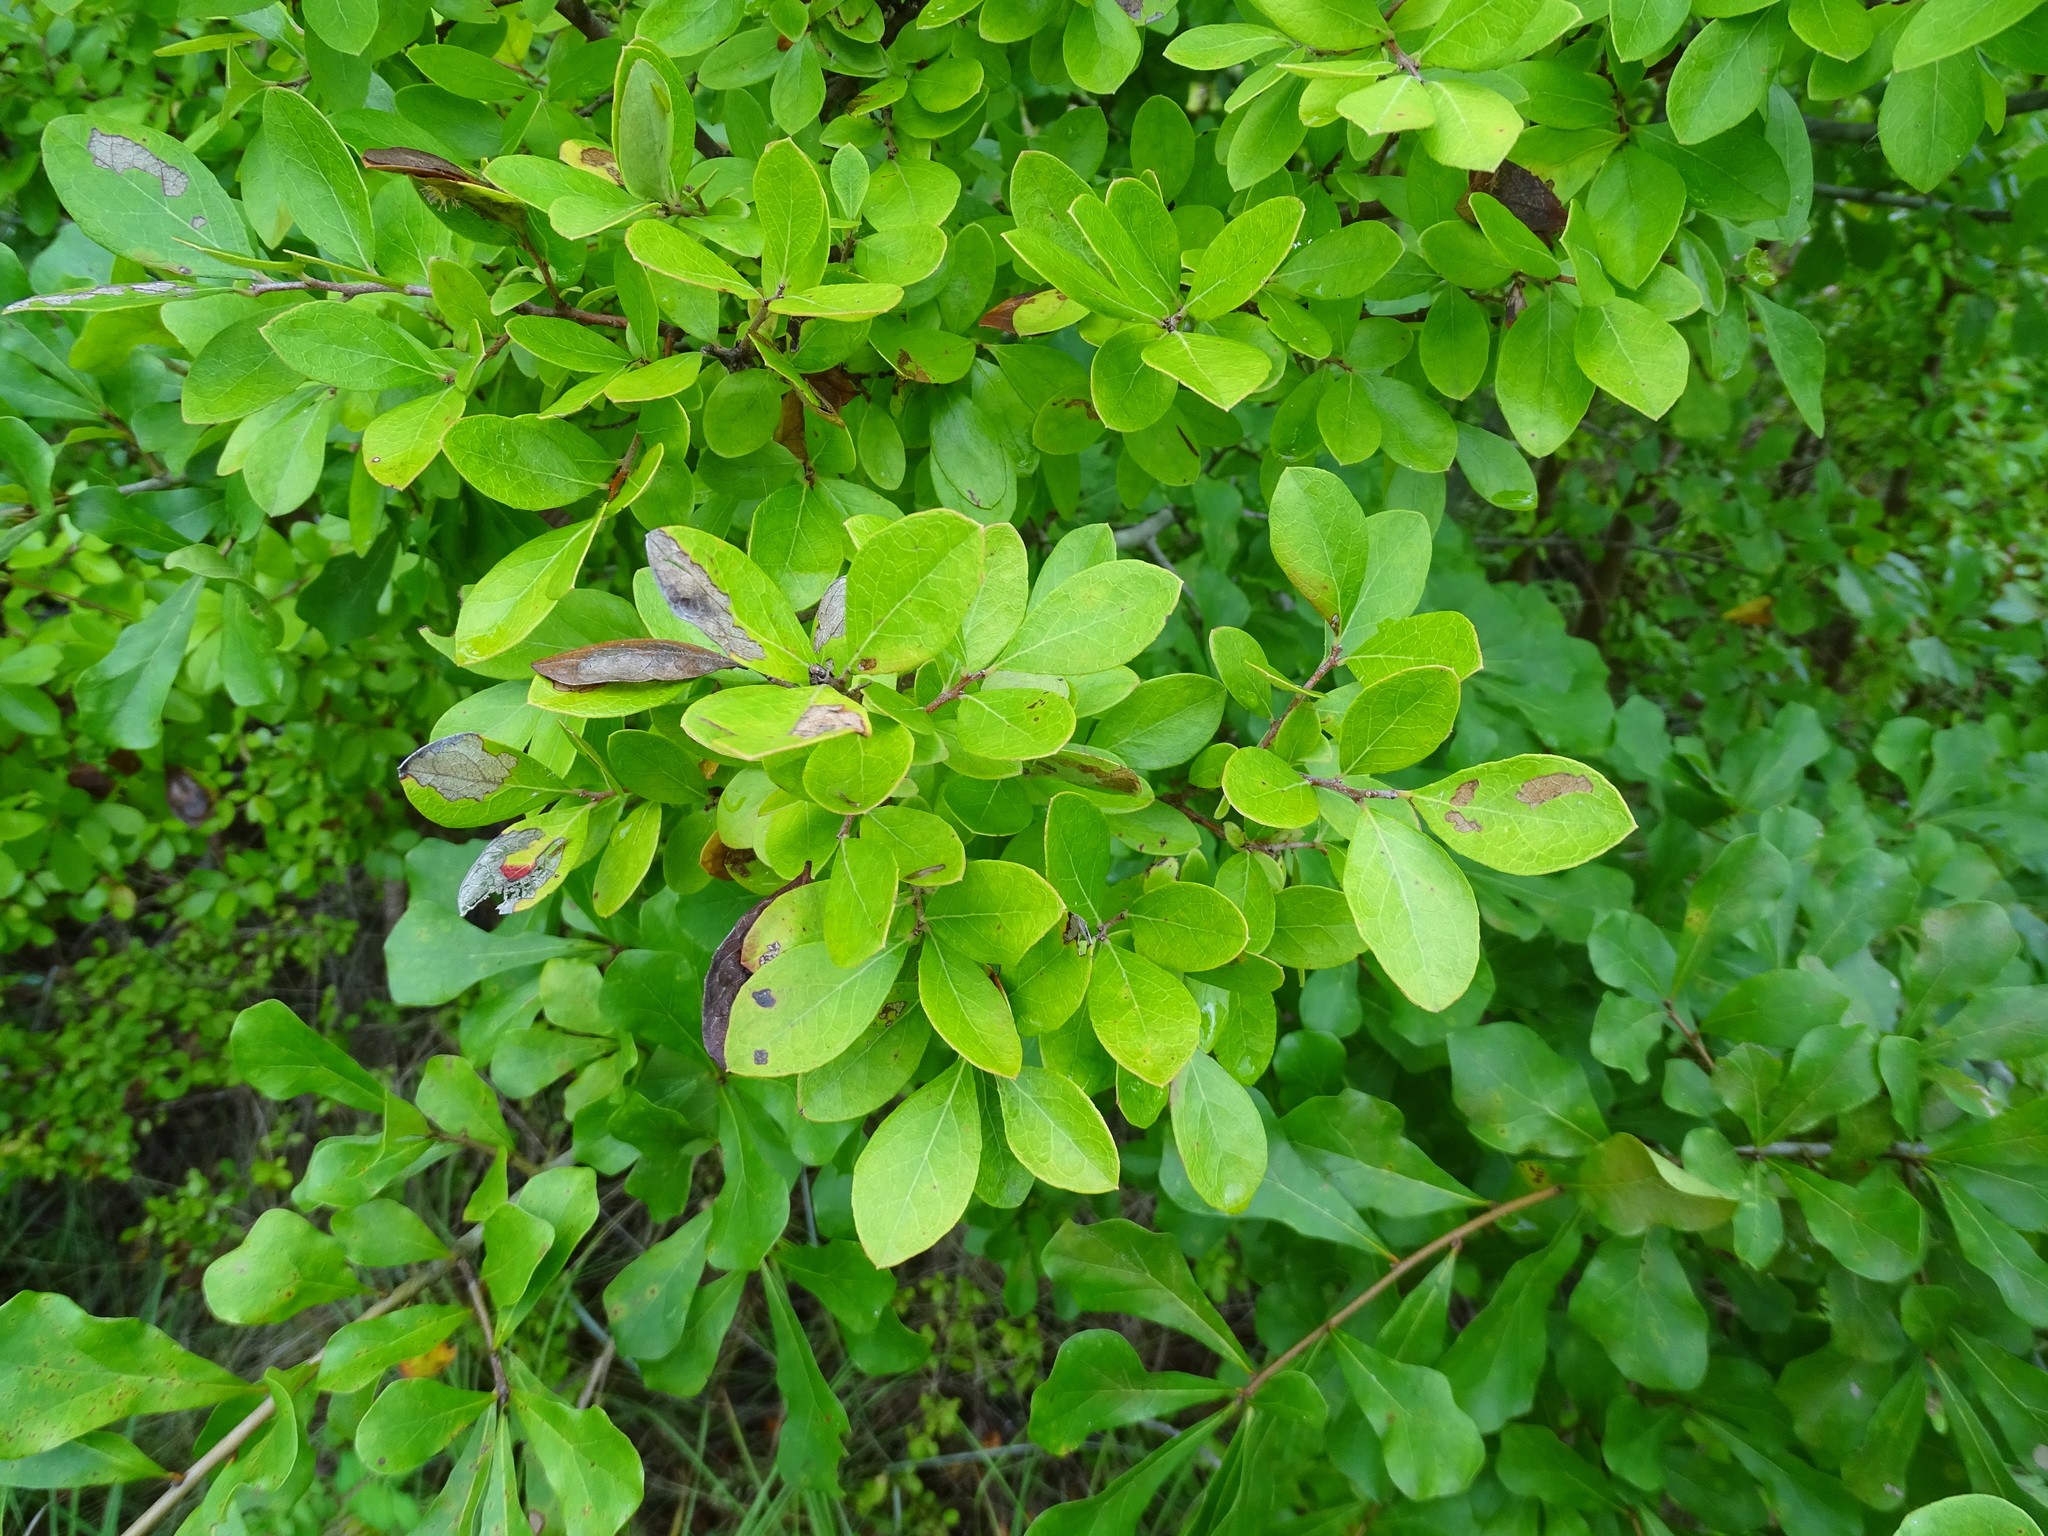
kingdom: Plantae
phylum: Tracheophyta
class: Magnoliopsida
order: Ericales
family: Ericaceae
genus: Vaccinium
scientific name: Vaccinium arboreum
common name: Farkleberry
